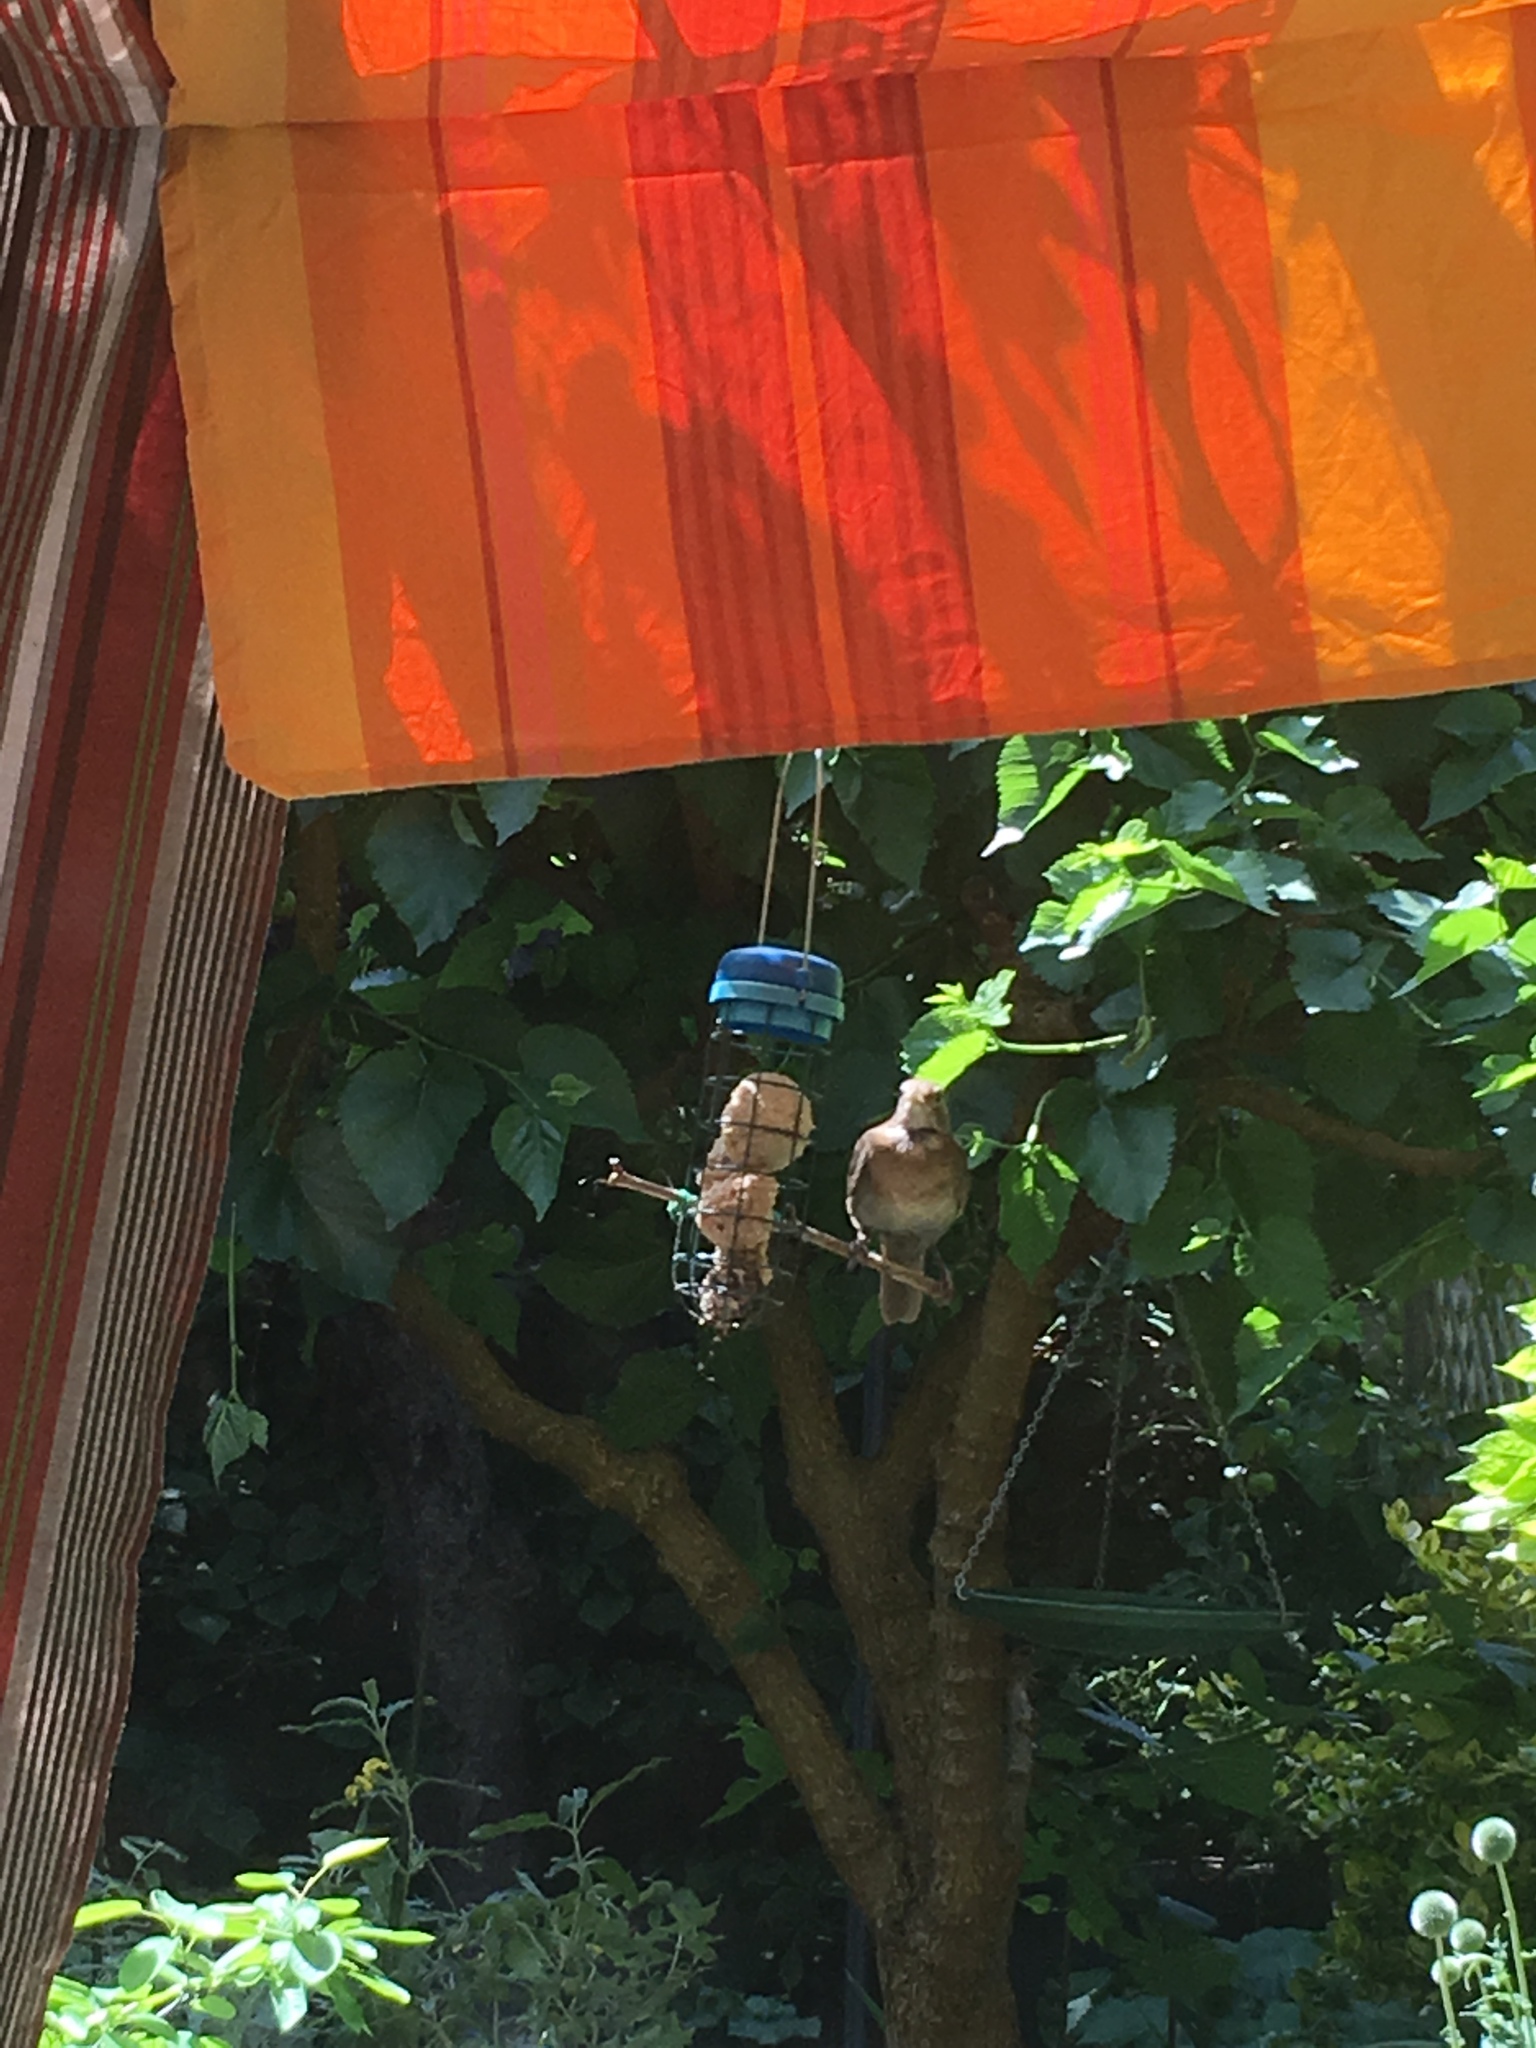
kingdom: Animalia
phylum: Chordata
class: Aves
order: Passeriformes
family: Turdidae
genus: Turdus
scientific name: Turdus merula
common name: Common blackbird
